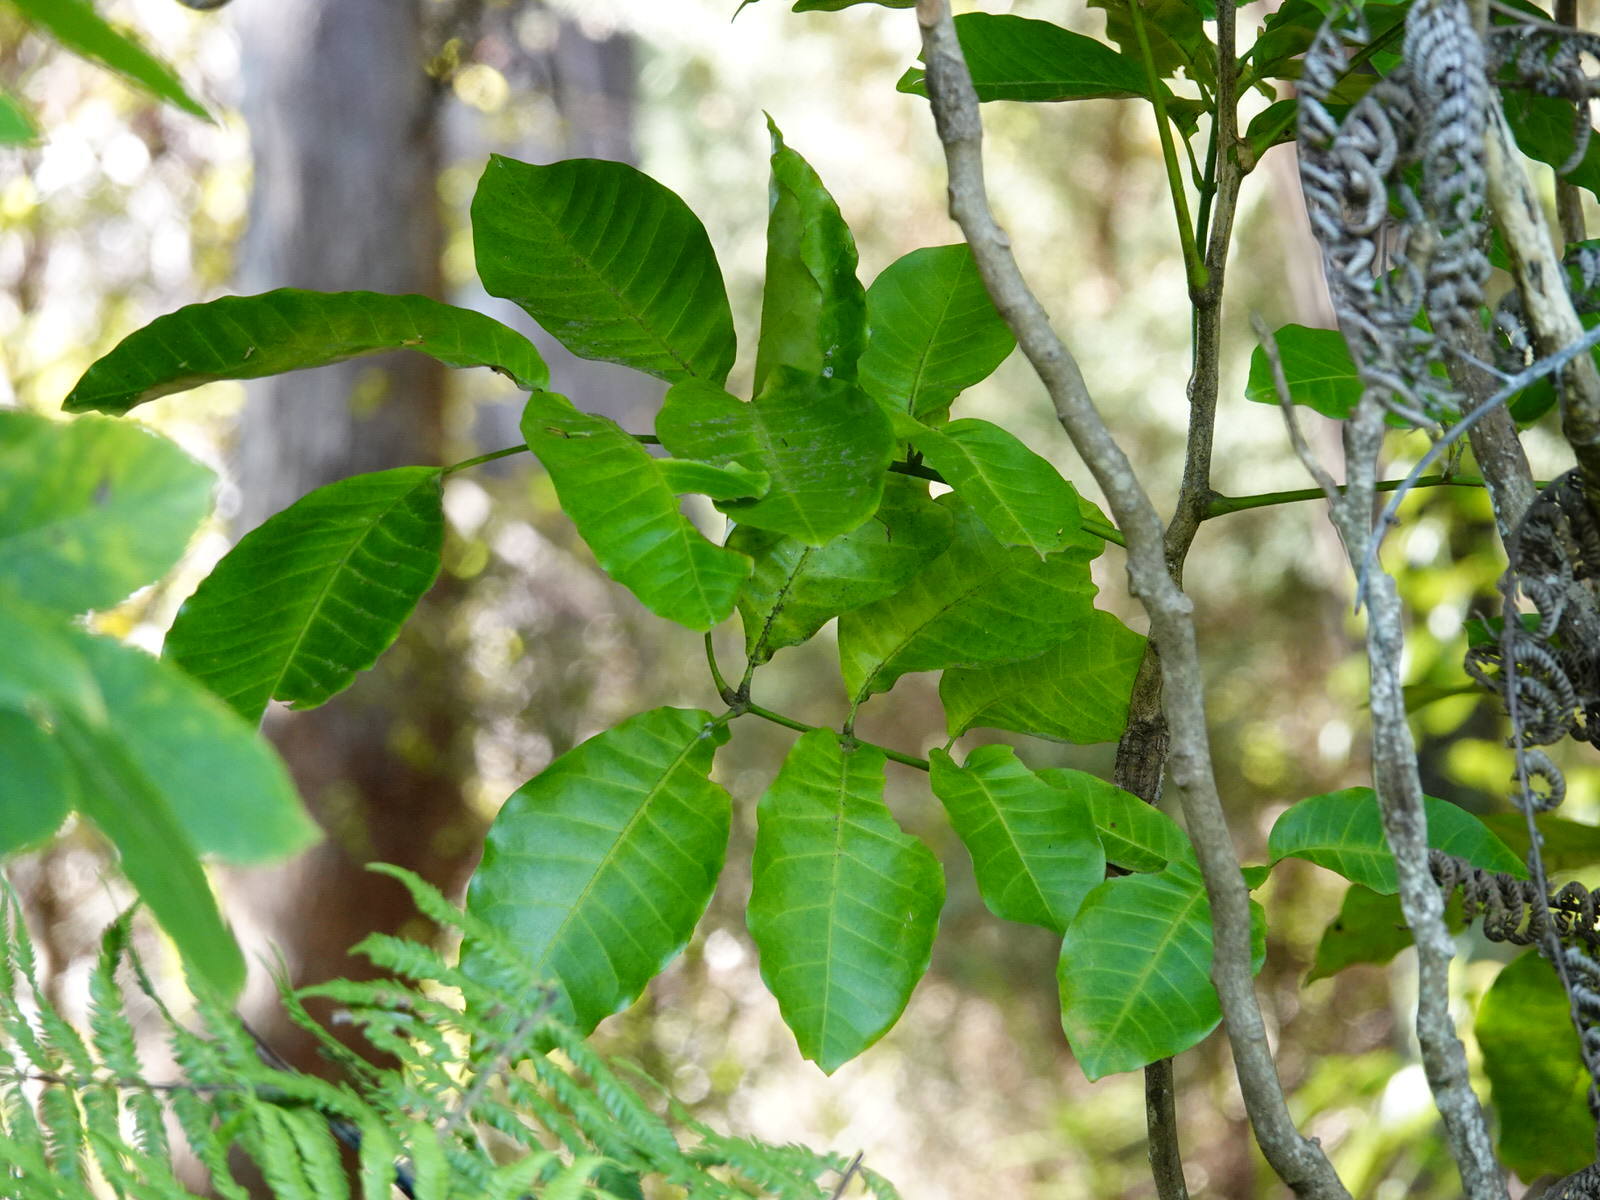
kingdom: Plantae
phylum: Tracheophyta
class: Magnoliopsida
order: Sapindales
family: Meliaceae
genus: Didymocheton
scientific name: Didymocheton spectabilis
